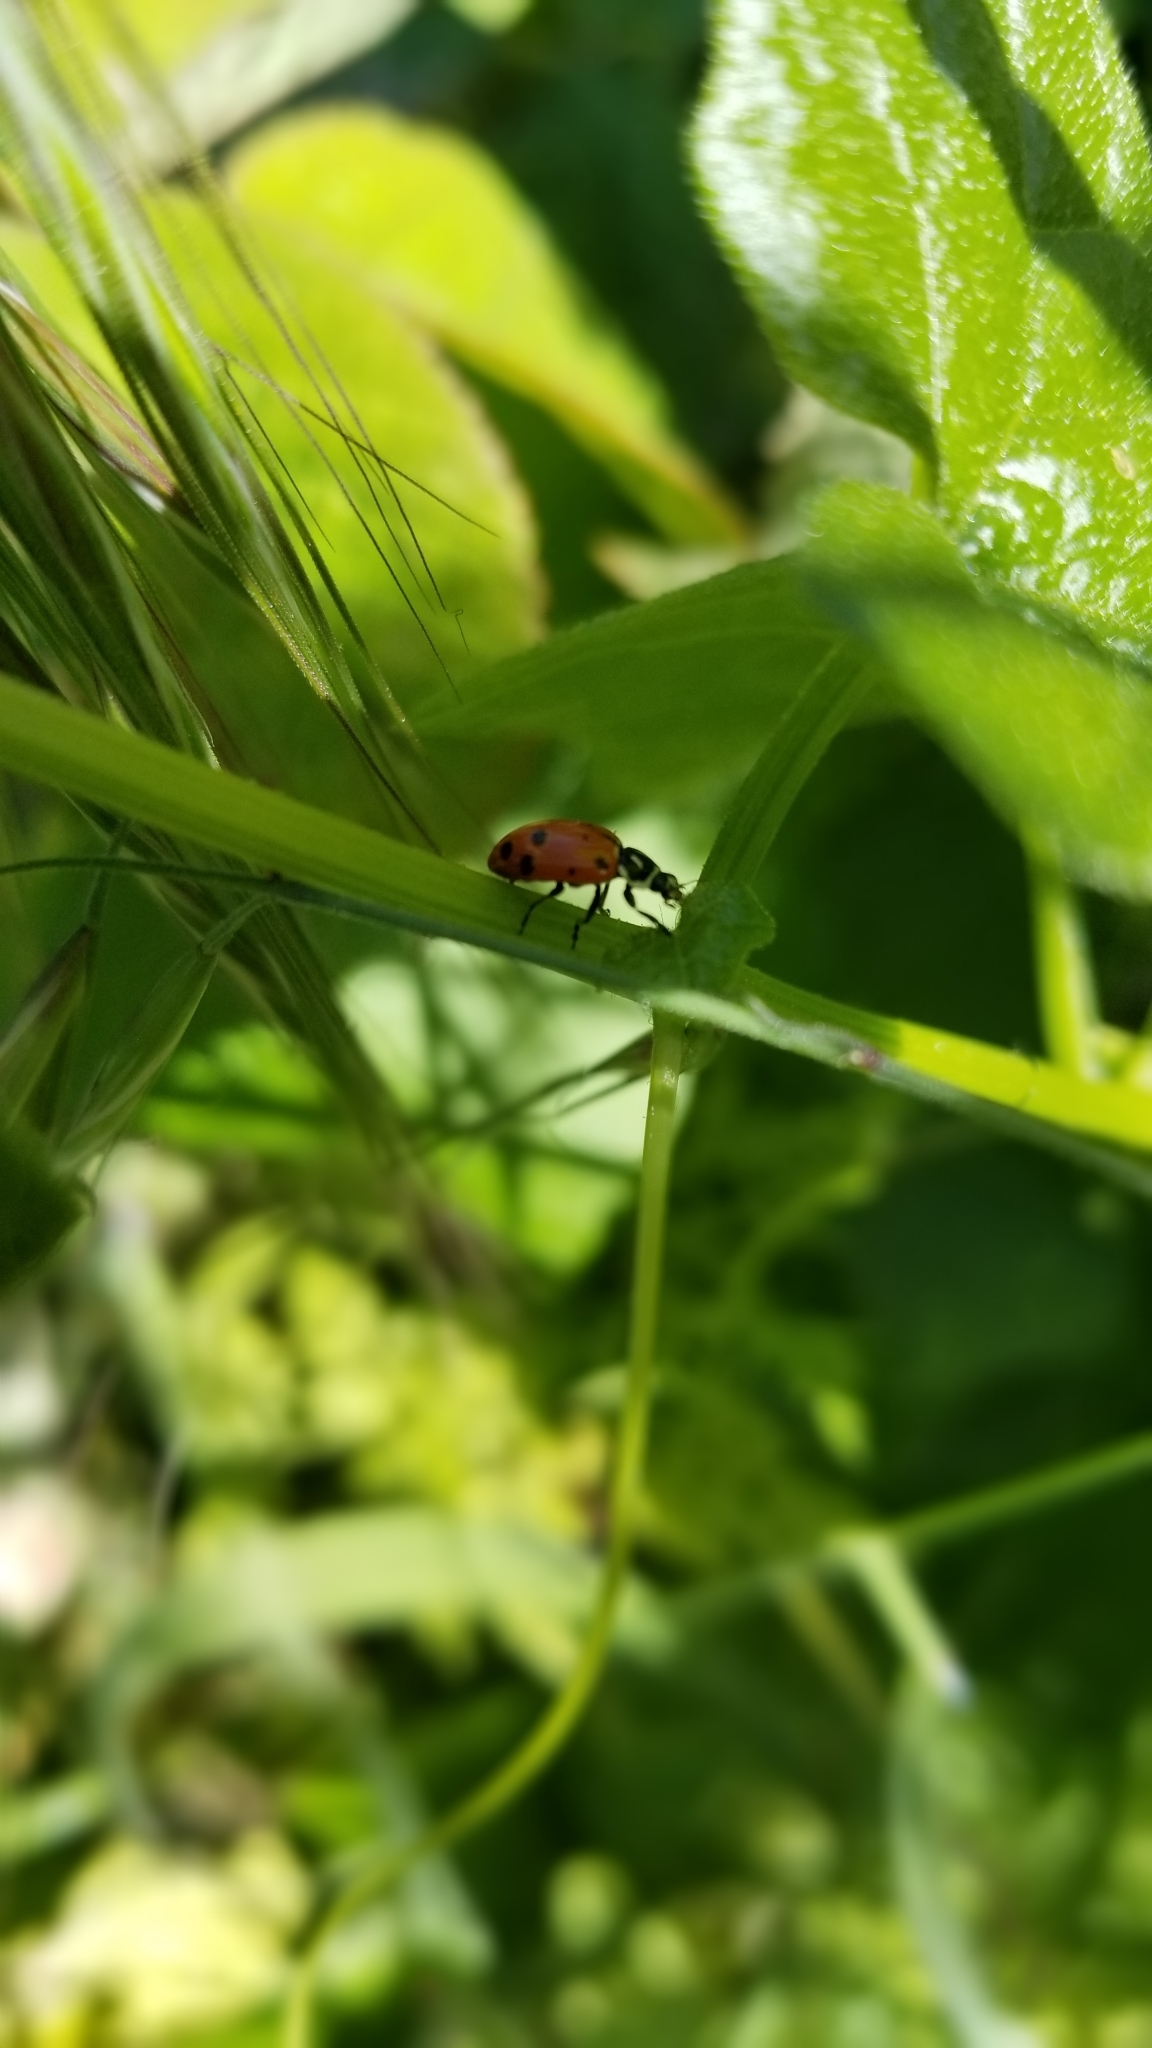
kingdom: Animalia
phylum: Arthropoda
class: Insecta
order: Coleoptera
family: Coccinellidae
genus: Hippodamia
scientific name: Hippodamia convergens
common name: Convergent lady beetle
